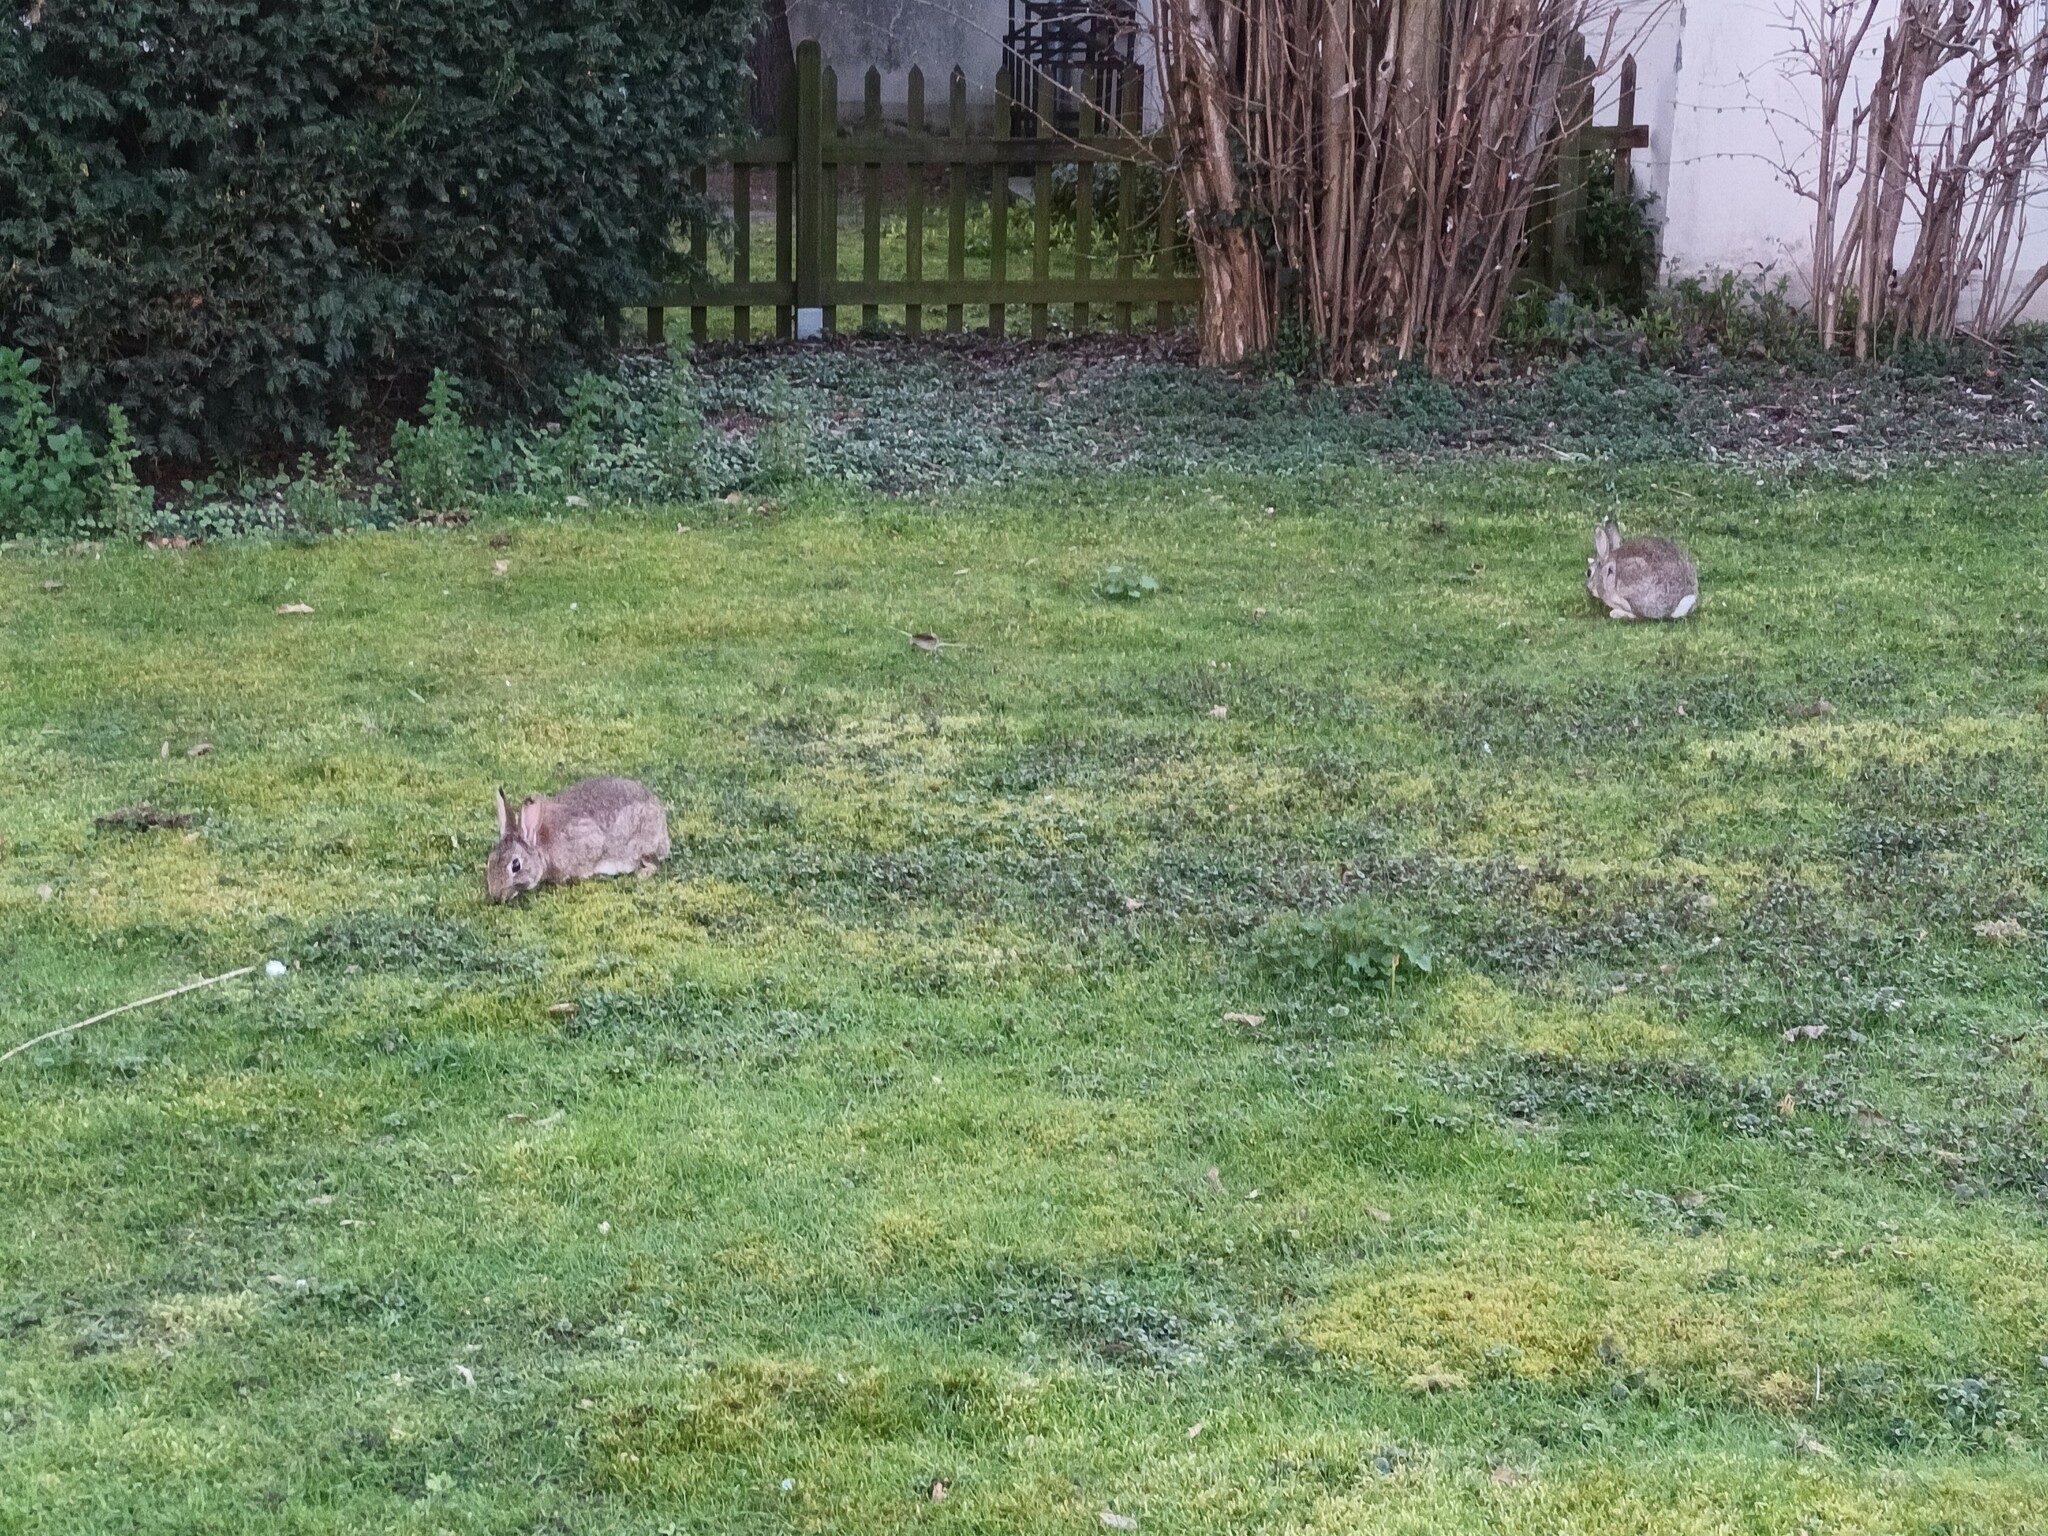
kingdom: Animalia
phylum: Chordata
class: Mammalia
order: Lagomorpha
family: Leporidae
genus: Oryctolagus
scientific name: Oryctolagus cuniculus
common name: European rabbit
